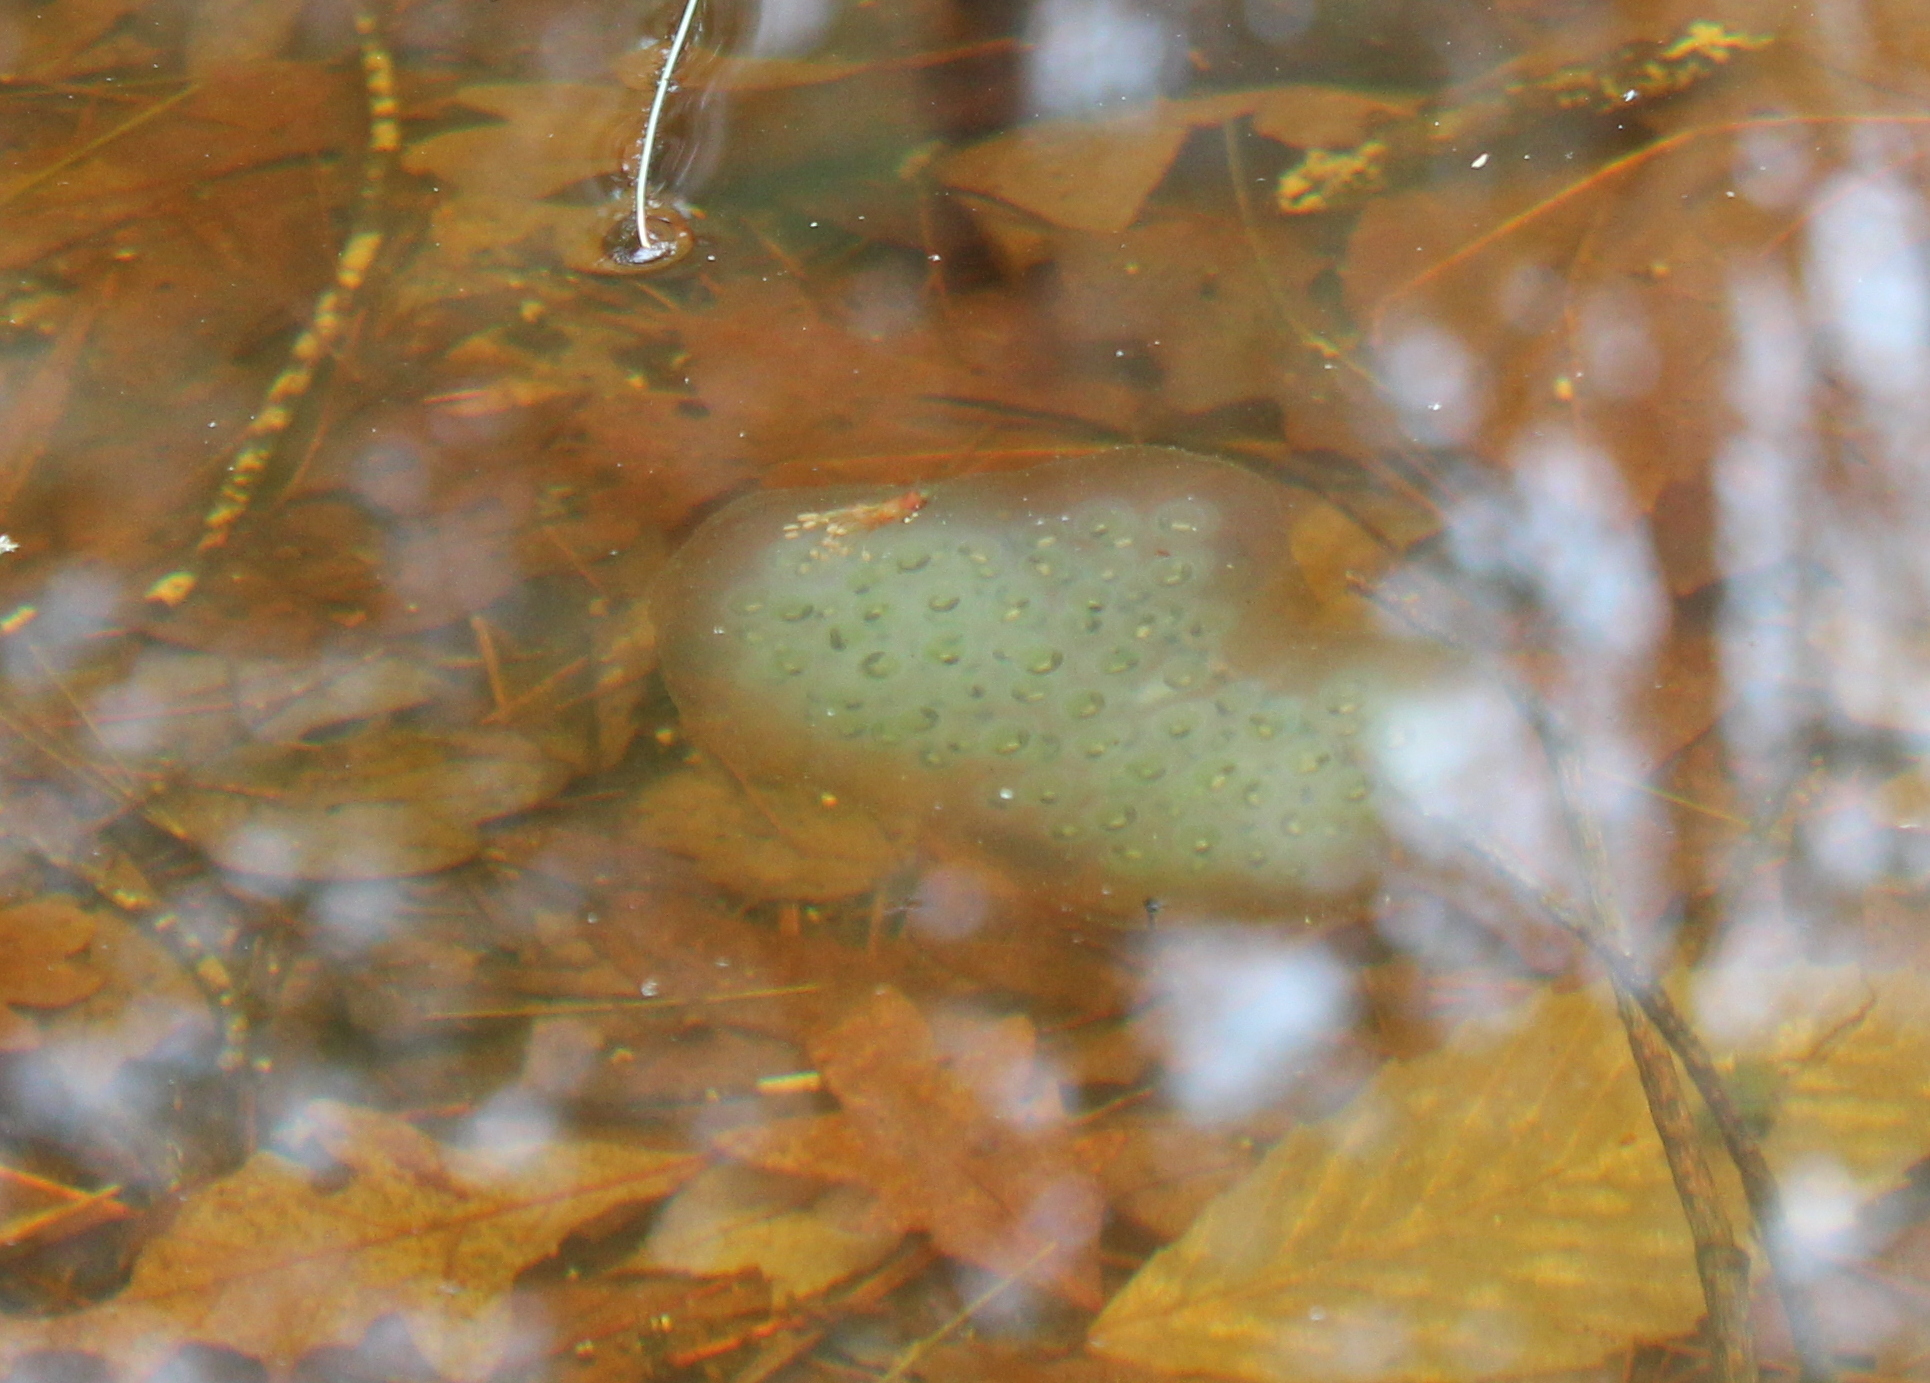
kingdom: Animalia
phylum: Chordata
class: Amphibia
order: Caudata
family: Ambystomatidae
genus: Ambystoma
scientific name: Ambystoma maculatum
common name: Spotted salamander
